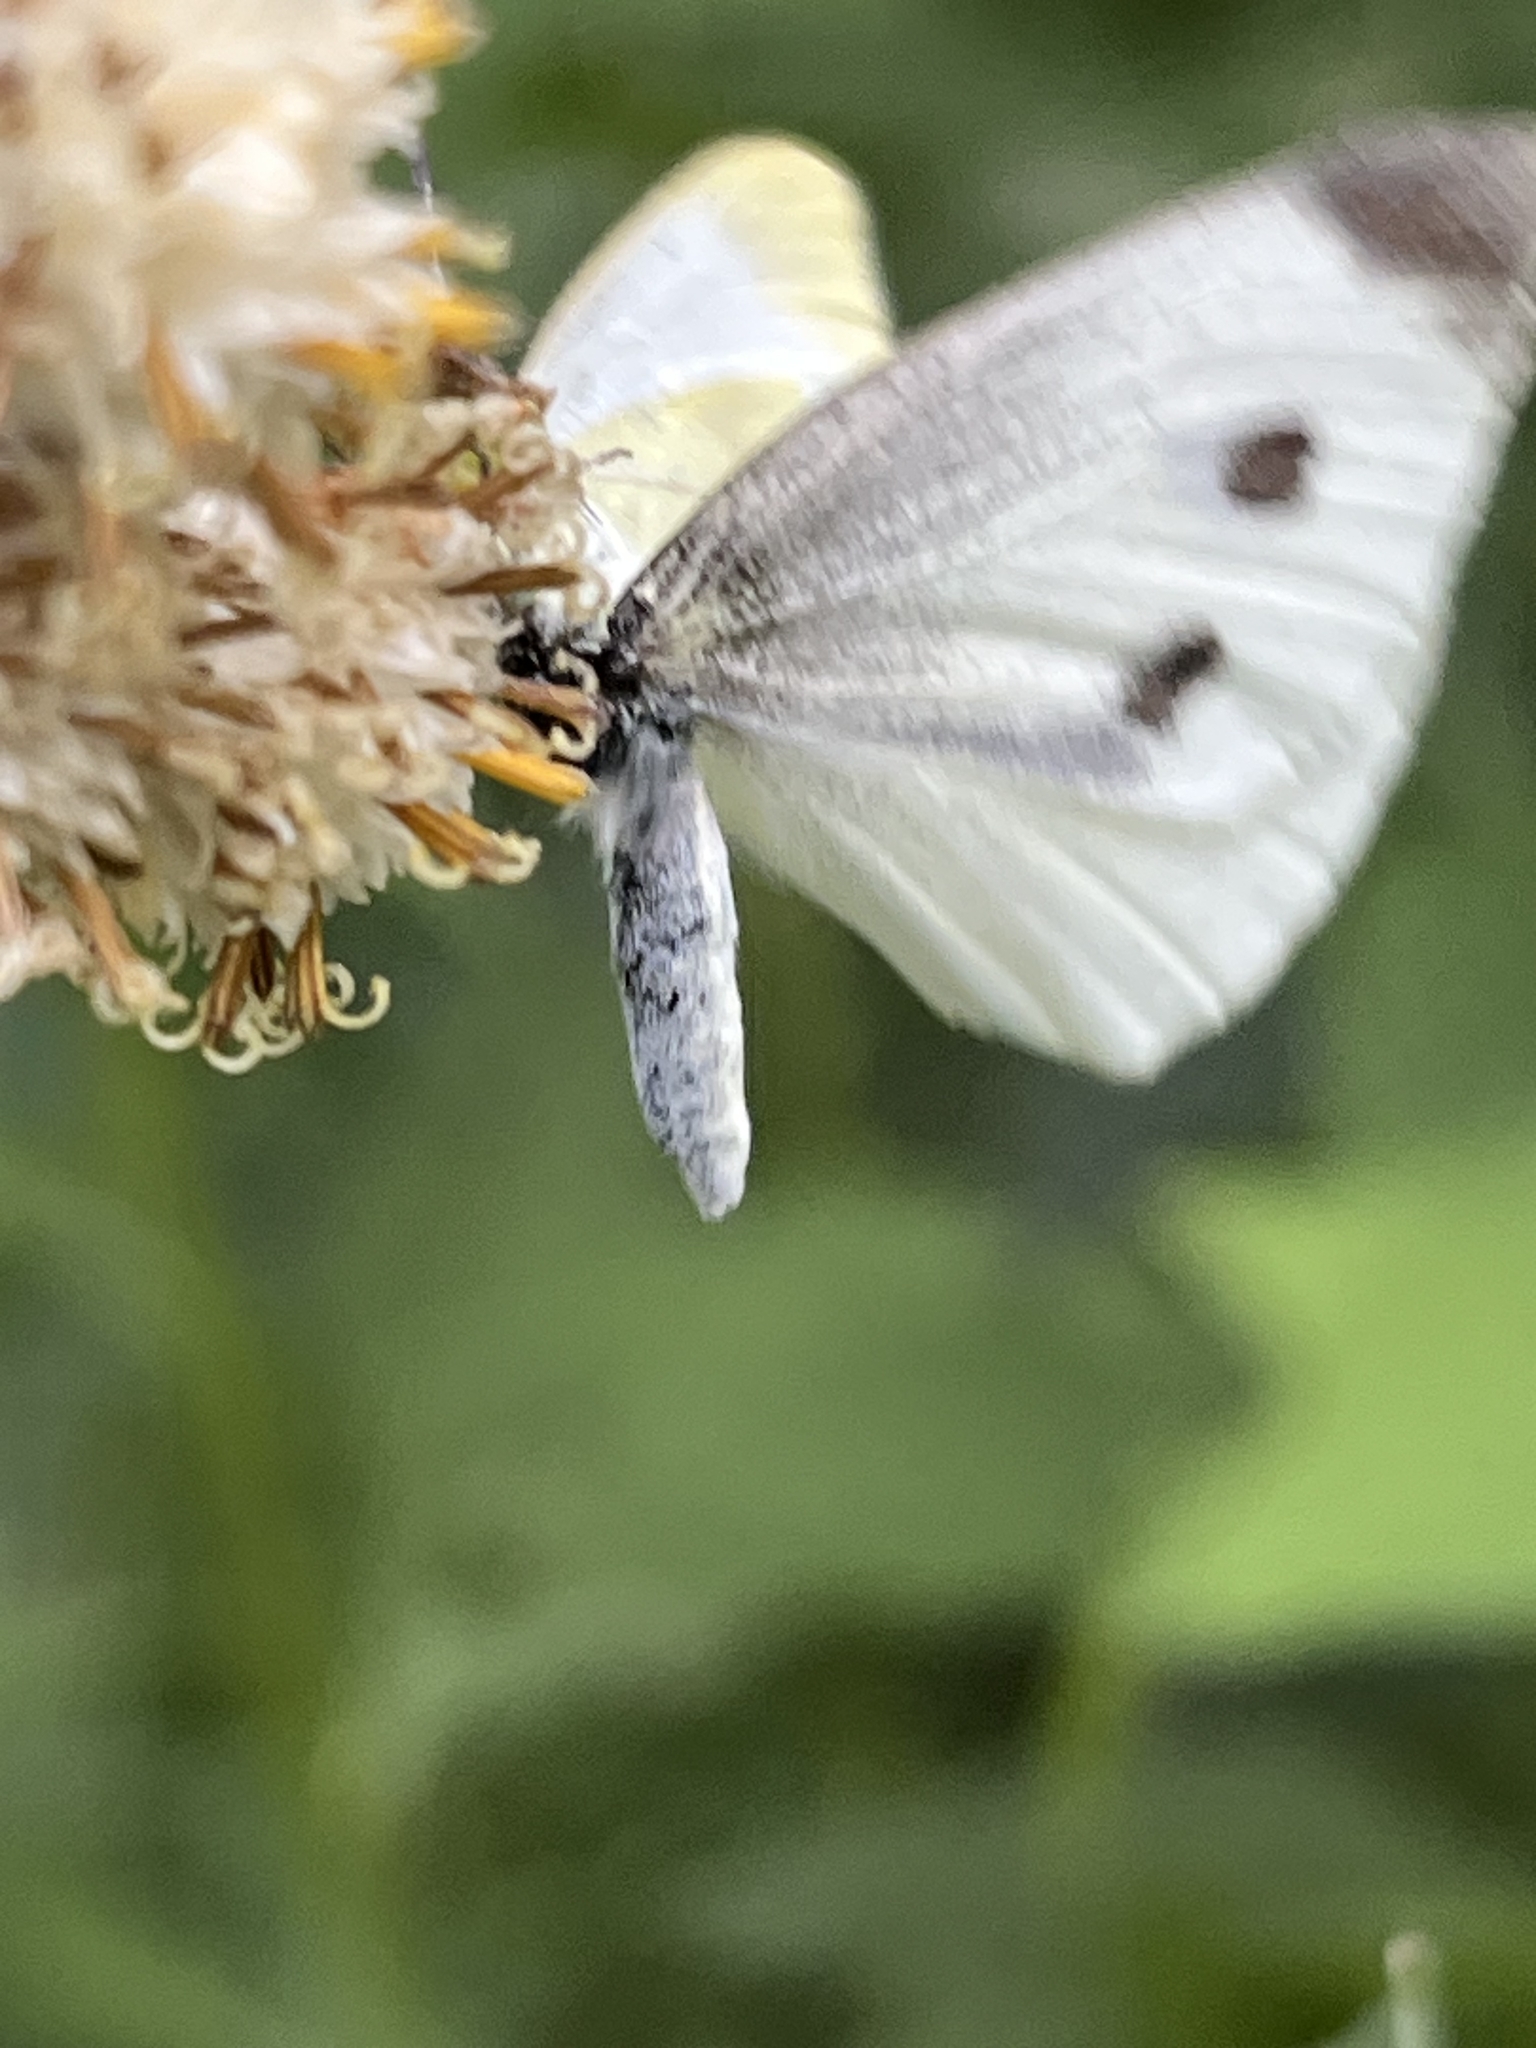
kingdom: Animalia
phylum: Arthropoda
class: Insecta
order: Lepidoptera
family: Pieridae
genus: Pieris
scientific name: Pieris rapae
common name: Small white
